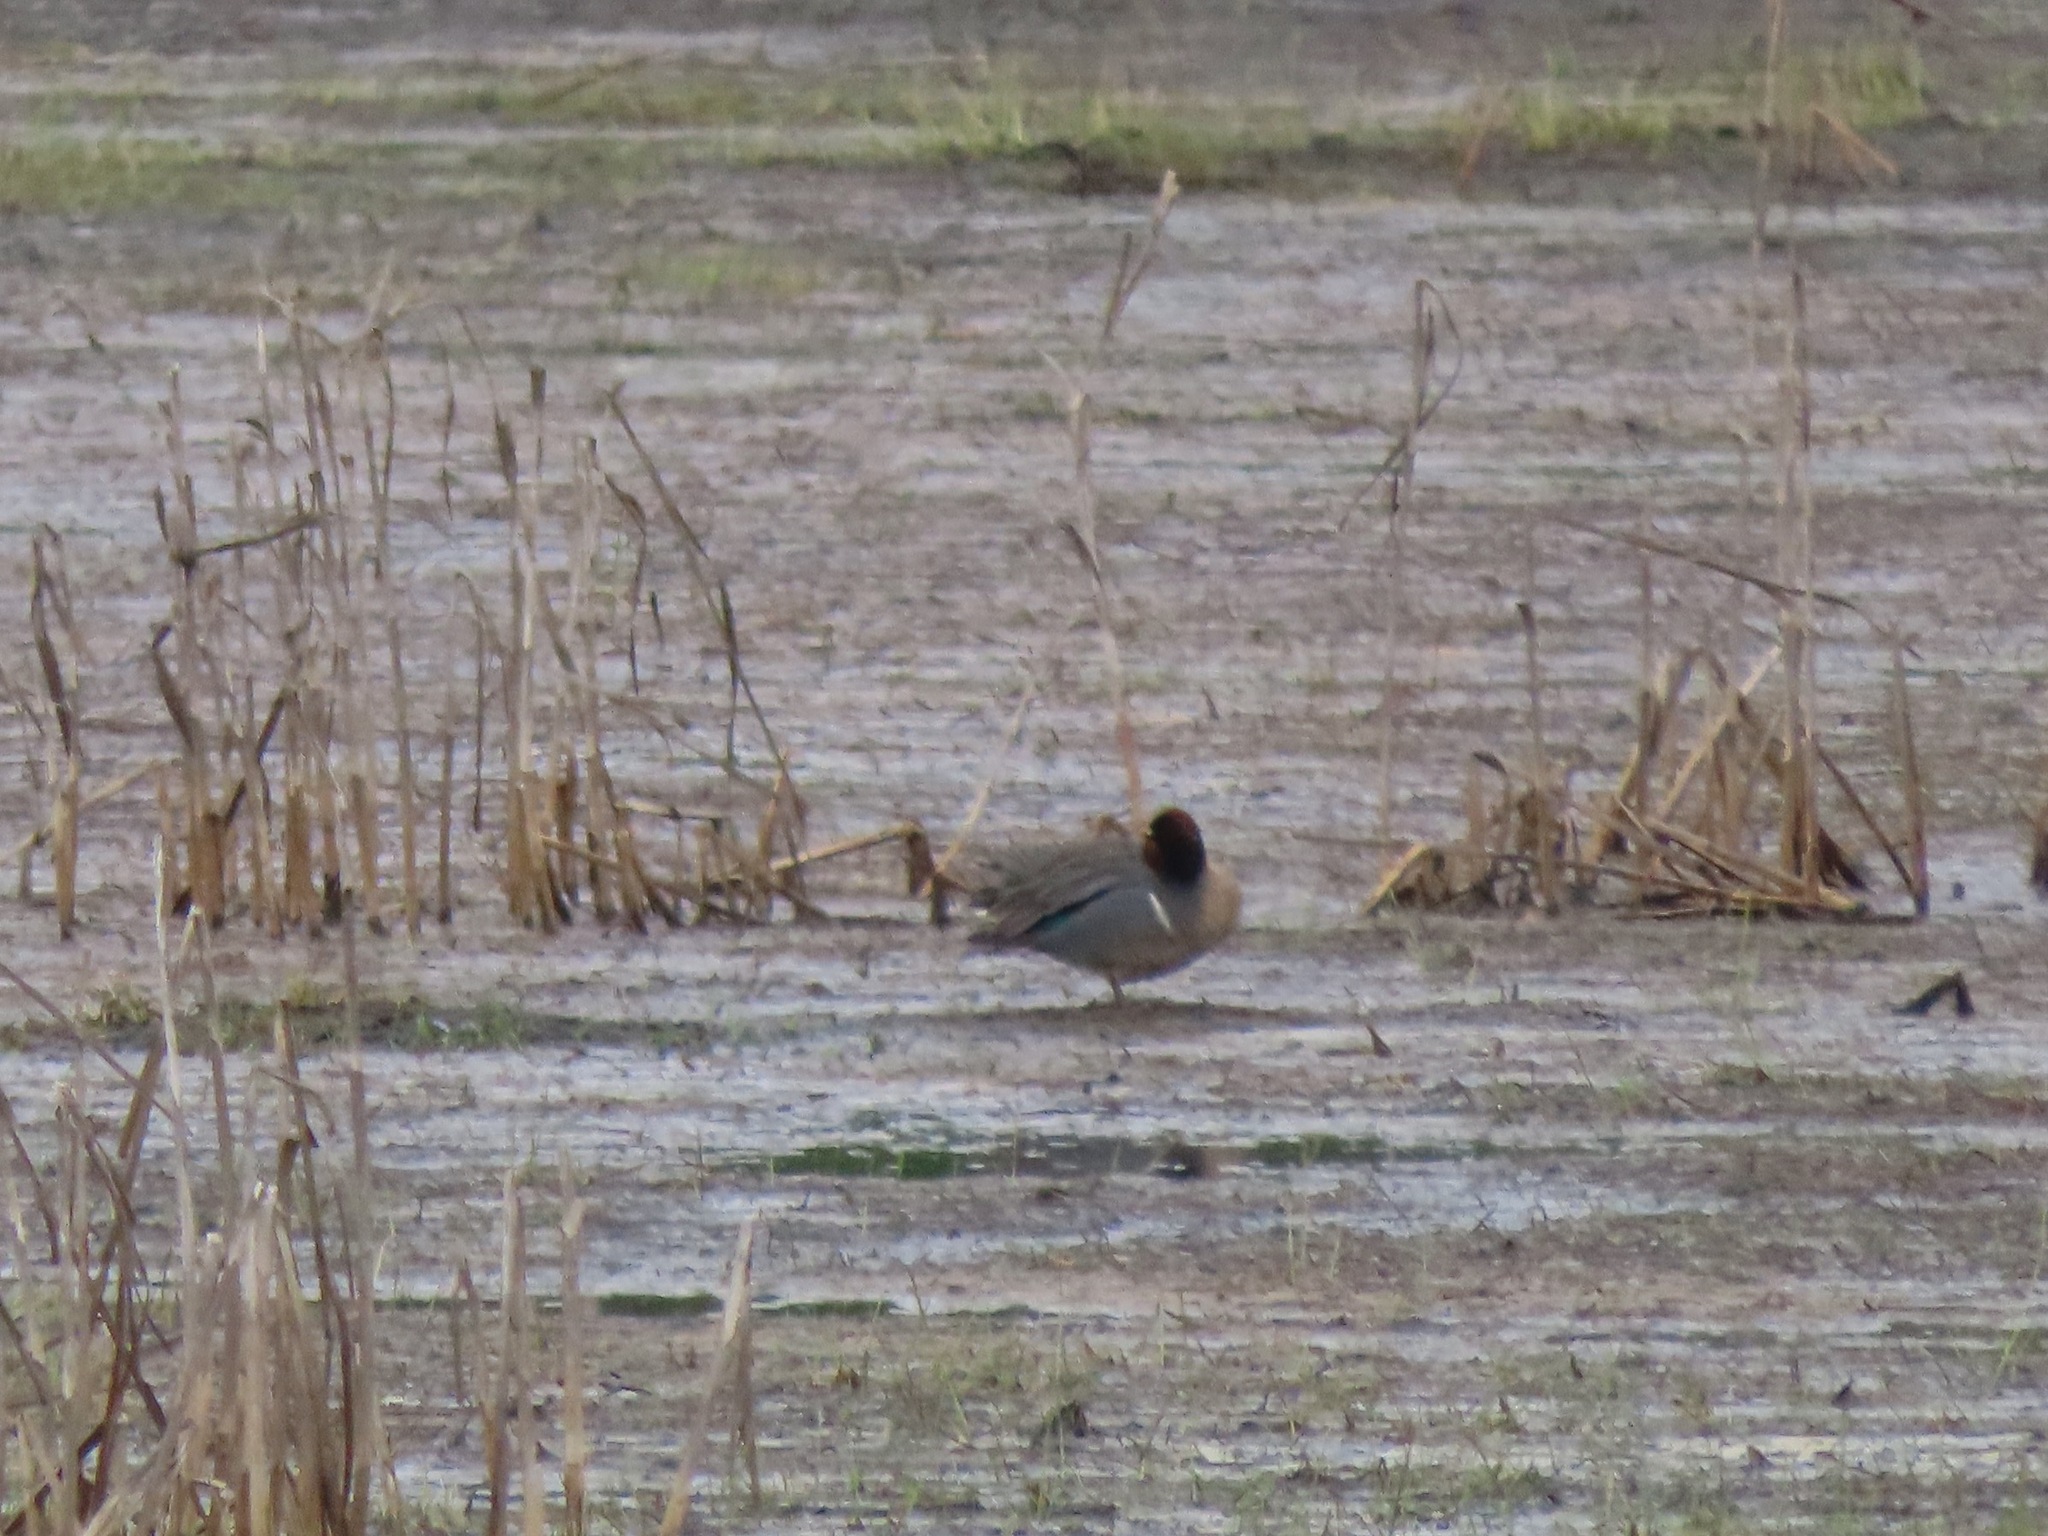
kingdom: Animalia
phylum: Chordata
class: Aves
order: Anseriformes
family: Anatidae
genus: Anas
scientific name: Anas crecca
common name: Eurasian teal
